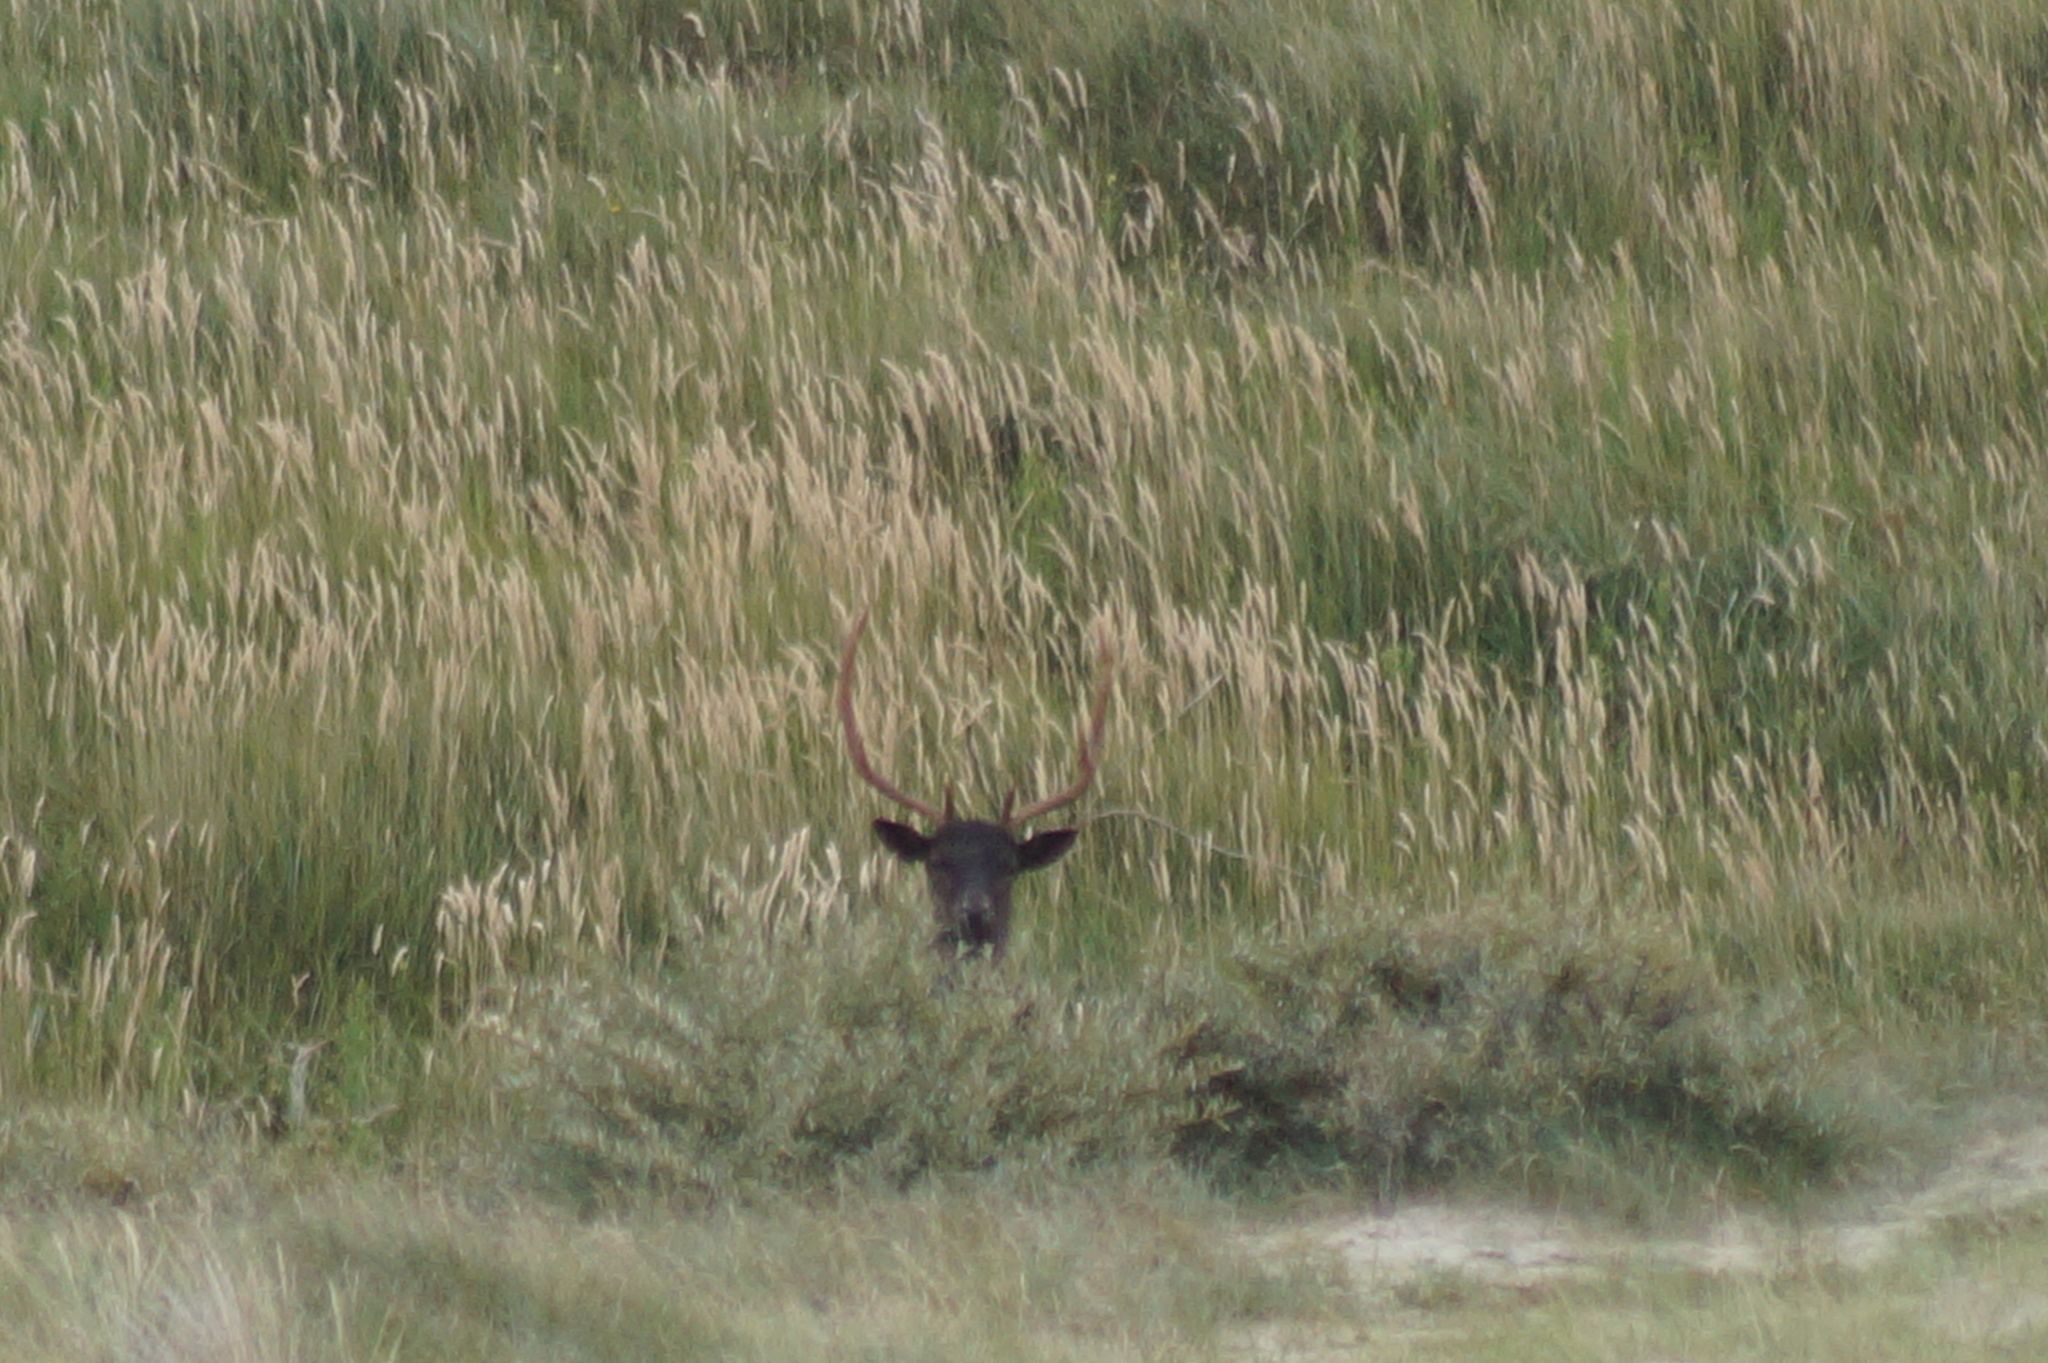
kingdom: Animalia
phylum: Chordata
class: Mammalia
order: Artiodactyla
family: Cervidae
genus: Dama
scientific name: Dama dama
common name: Fallow deer
